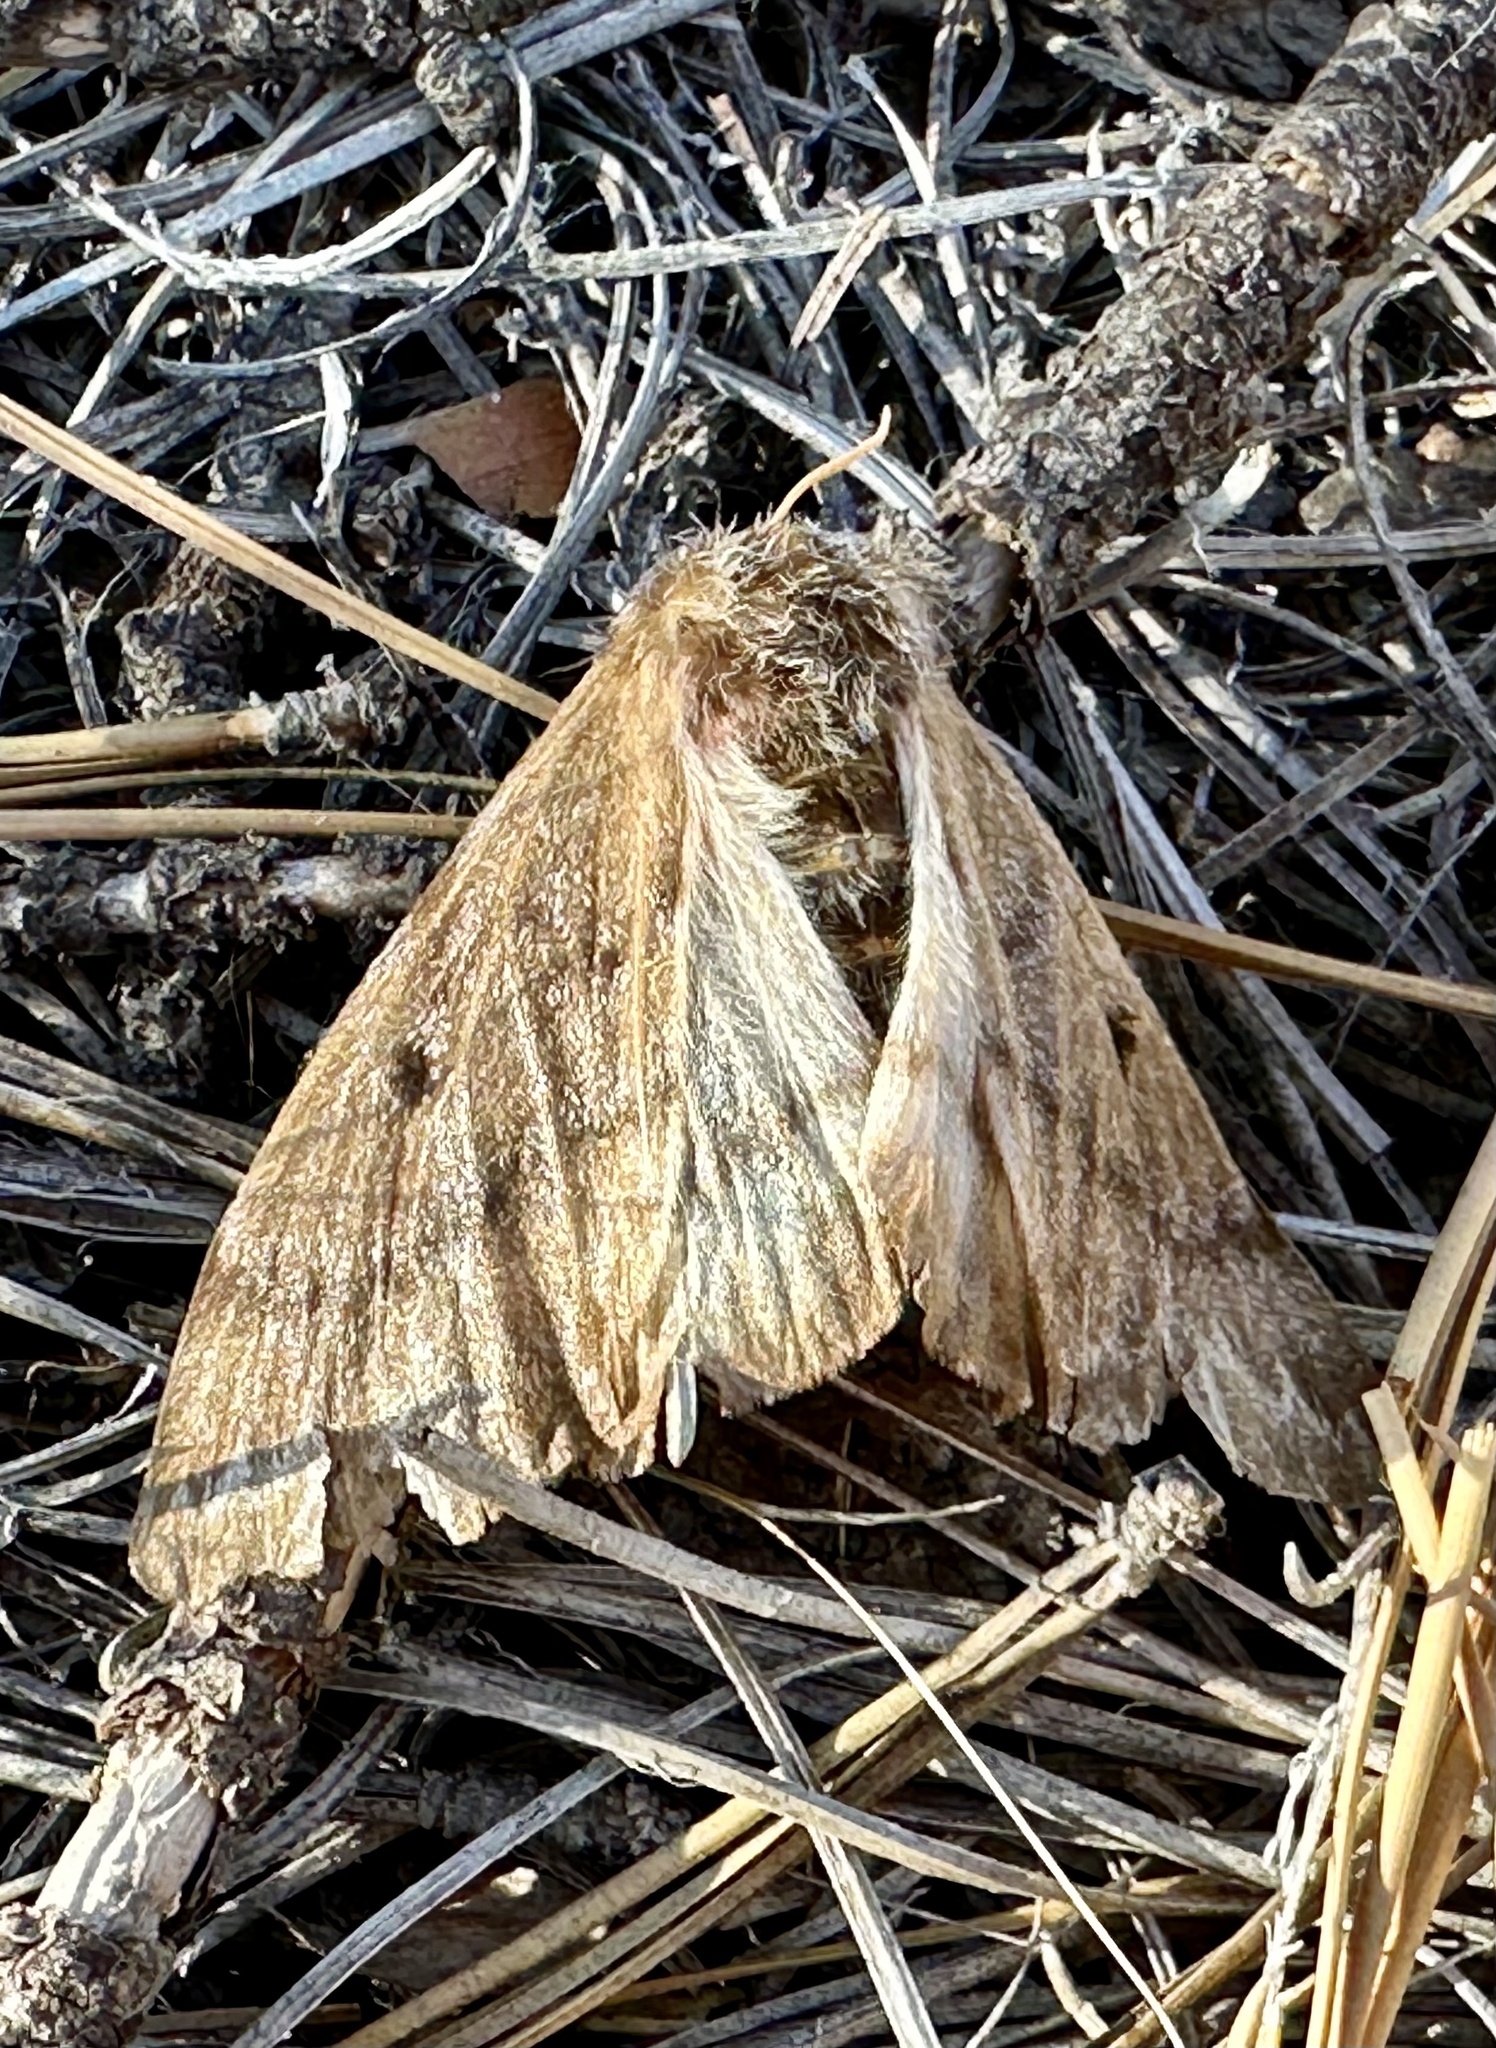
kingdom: Animalia
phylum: Arthropoda
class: Insecta
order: Lepidoptera
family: Saturniidae
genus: Coloradia
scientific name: Coloradia pandora
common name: Pandora pinemoth
